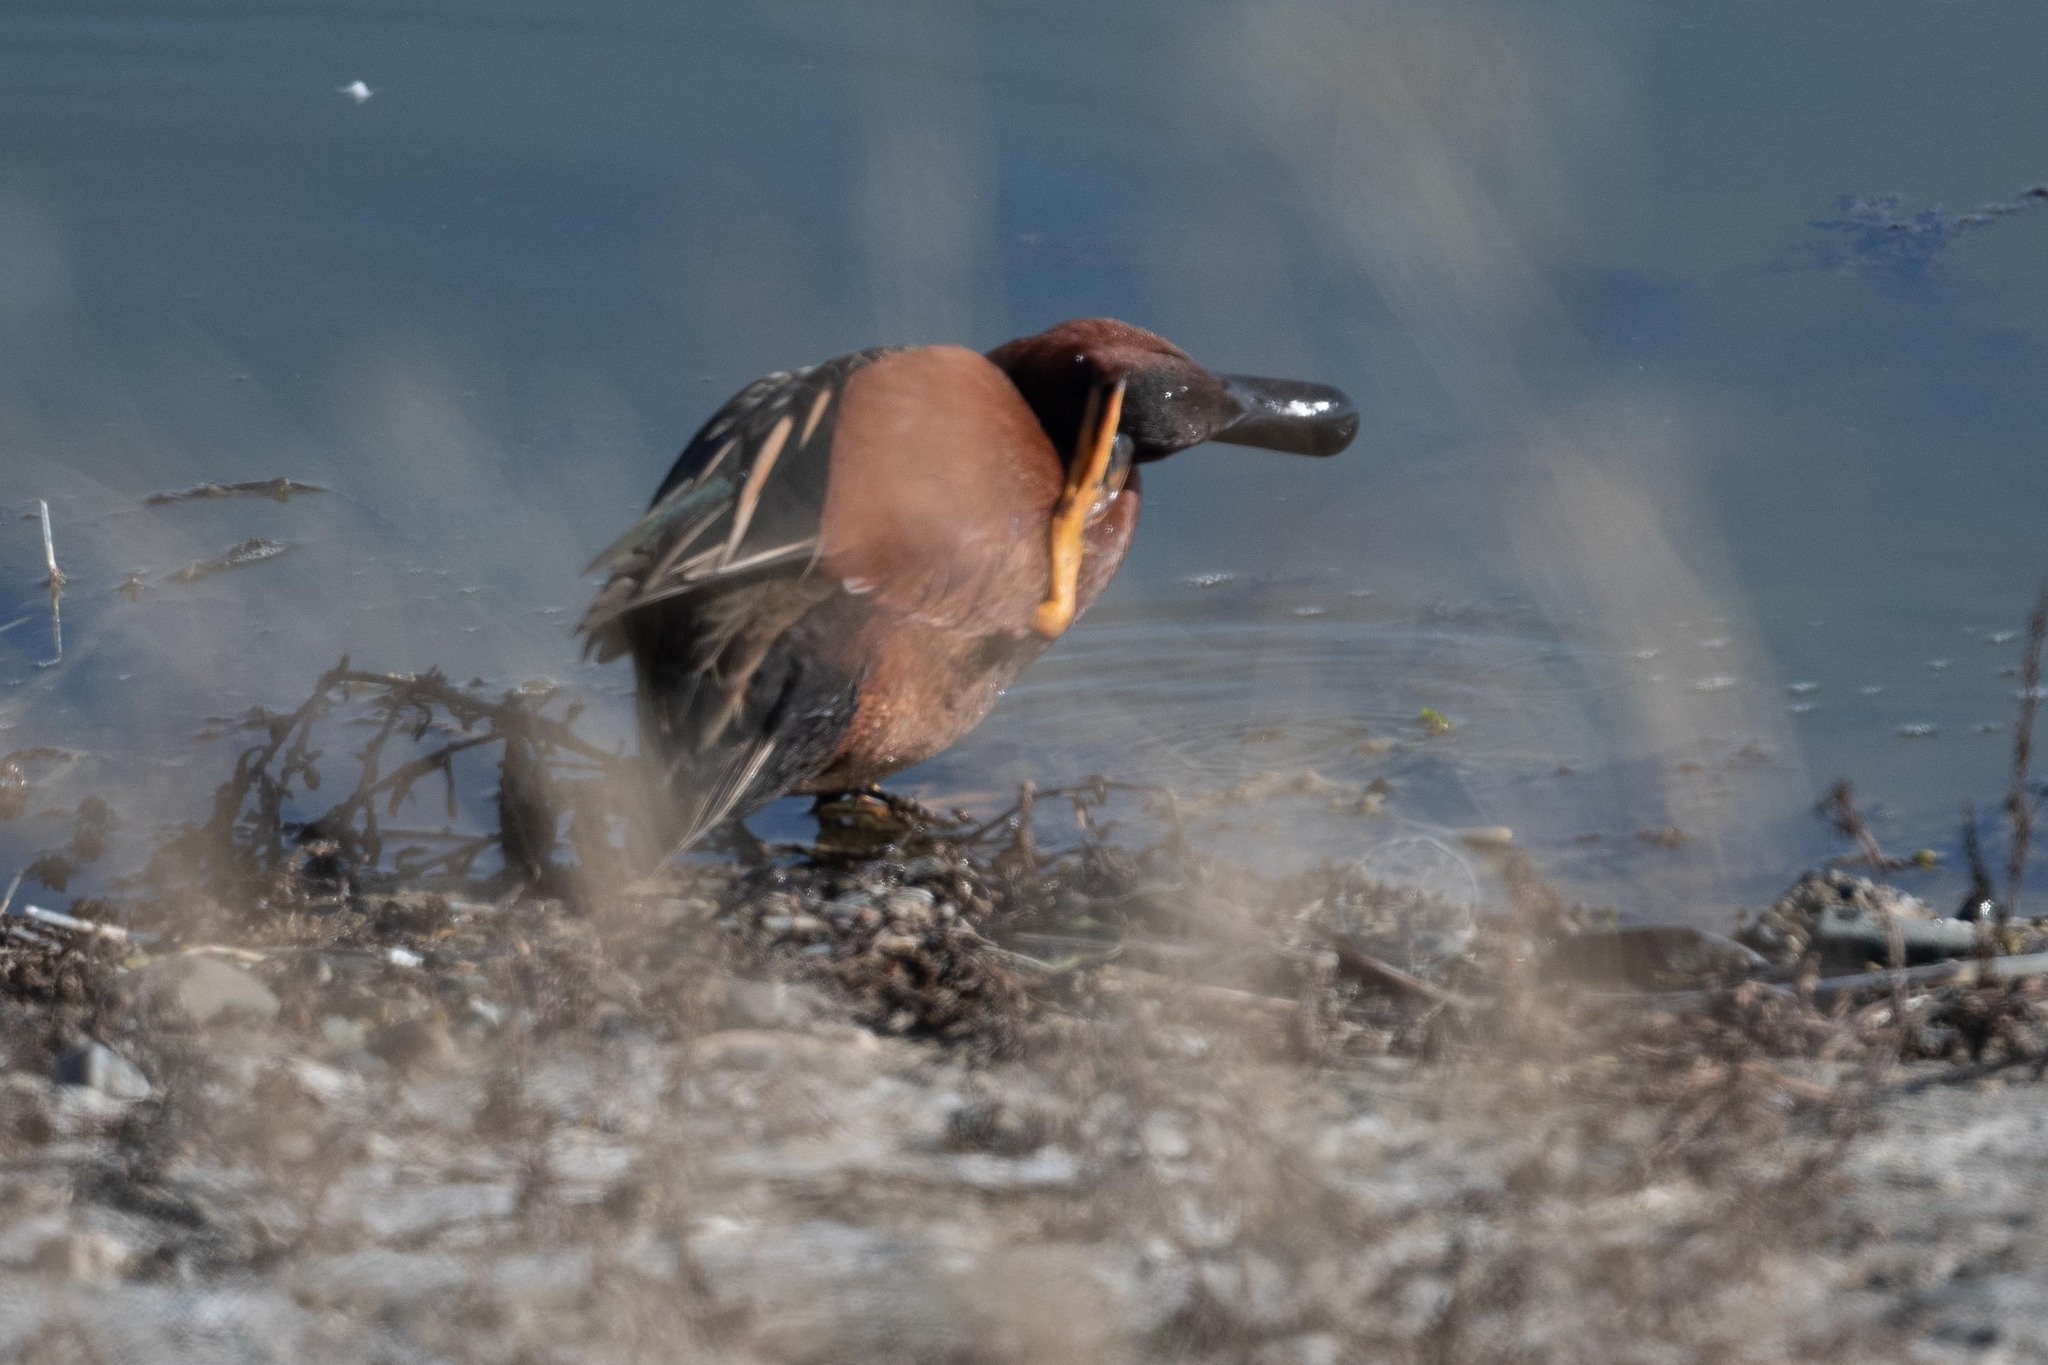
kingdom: Animalia
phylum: Chordata
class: Aves
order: Anseriformes
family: Anatidae
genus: Spatula
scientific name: Spatula cyanoptera
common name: Cinnamon teal
